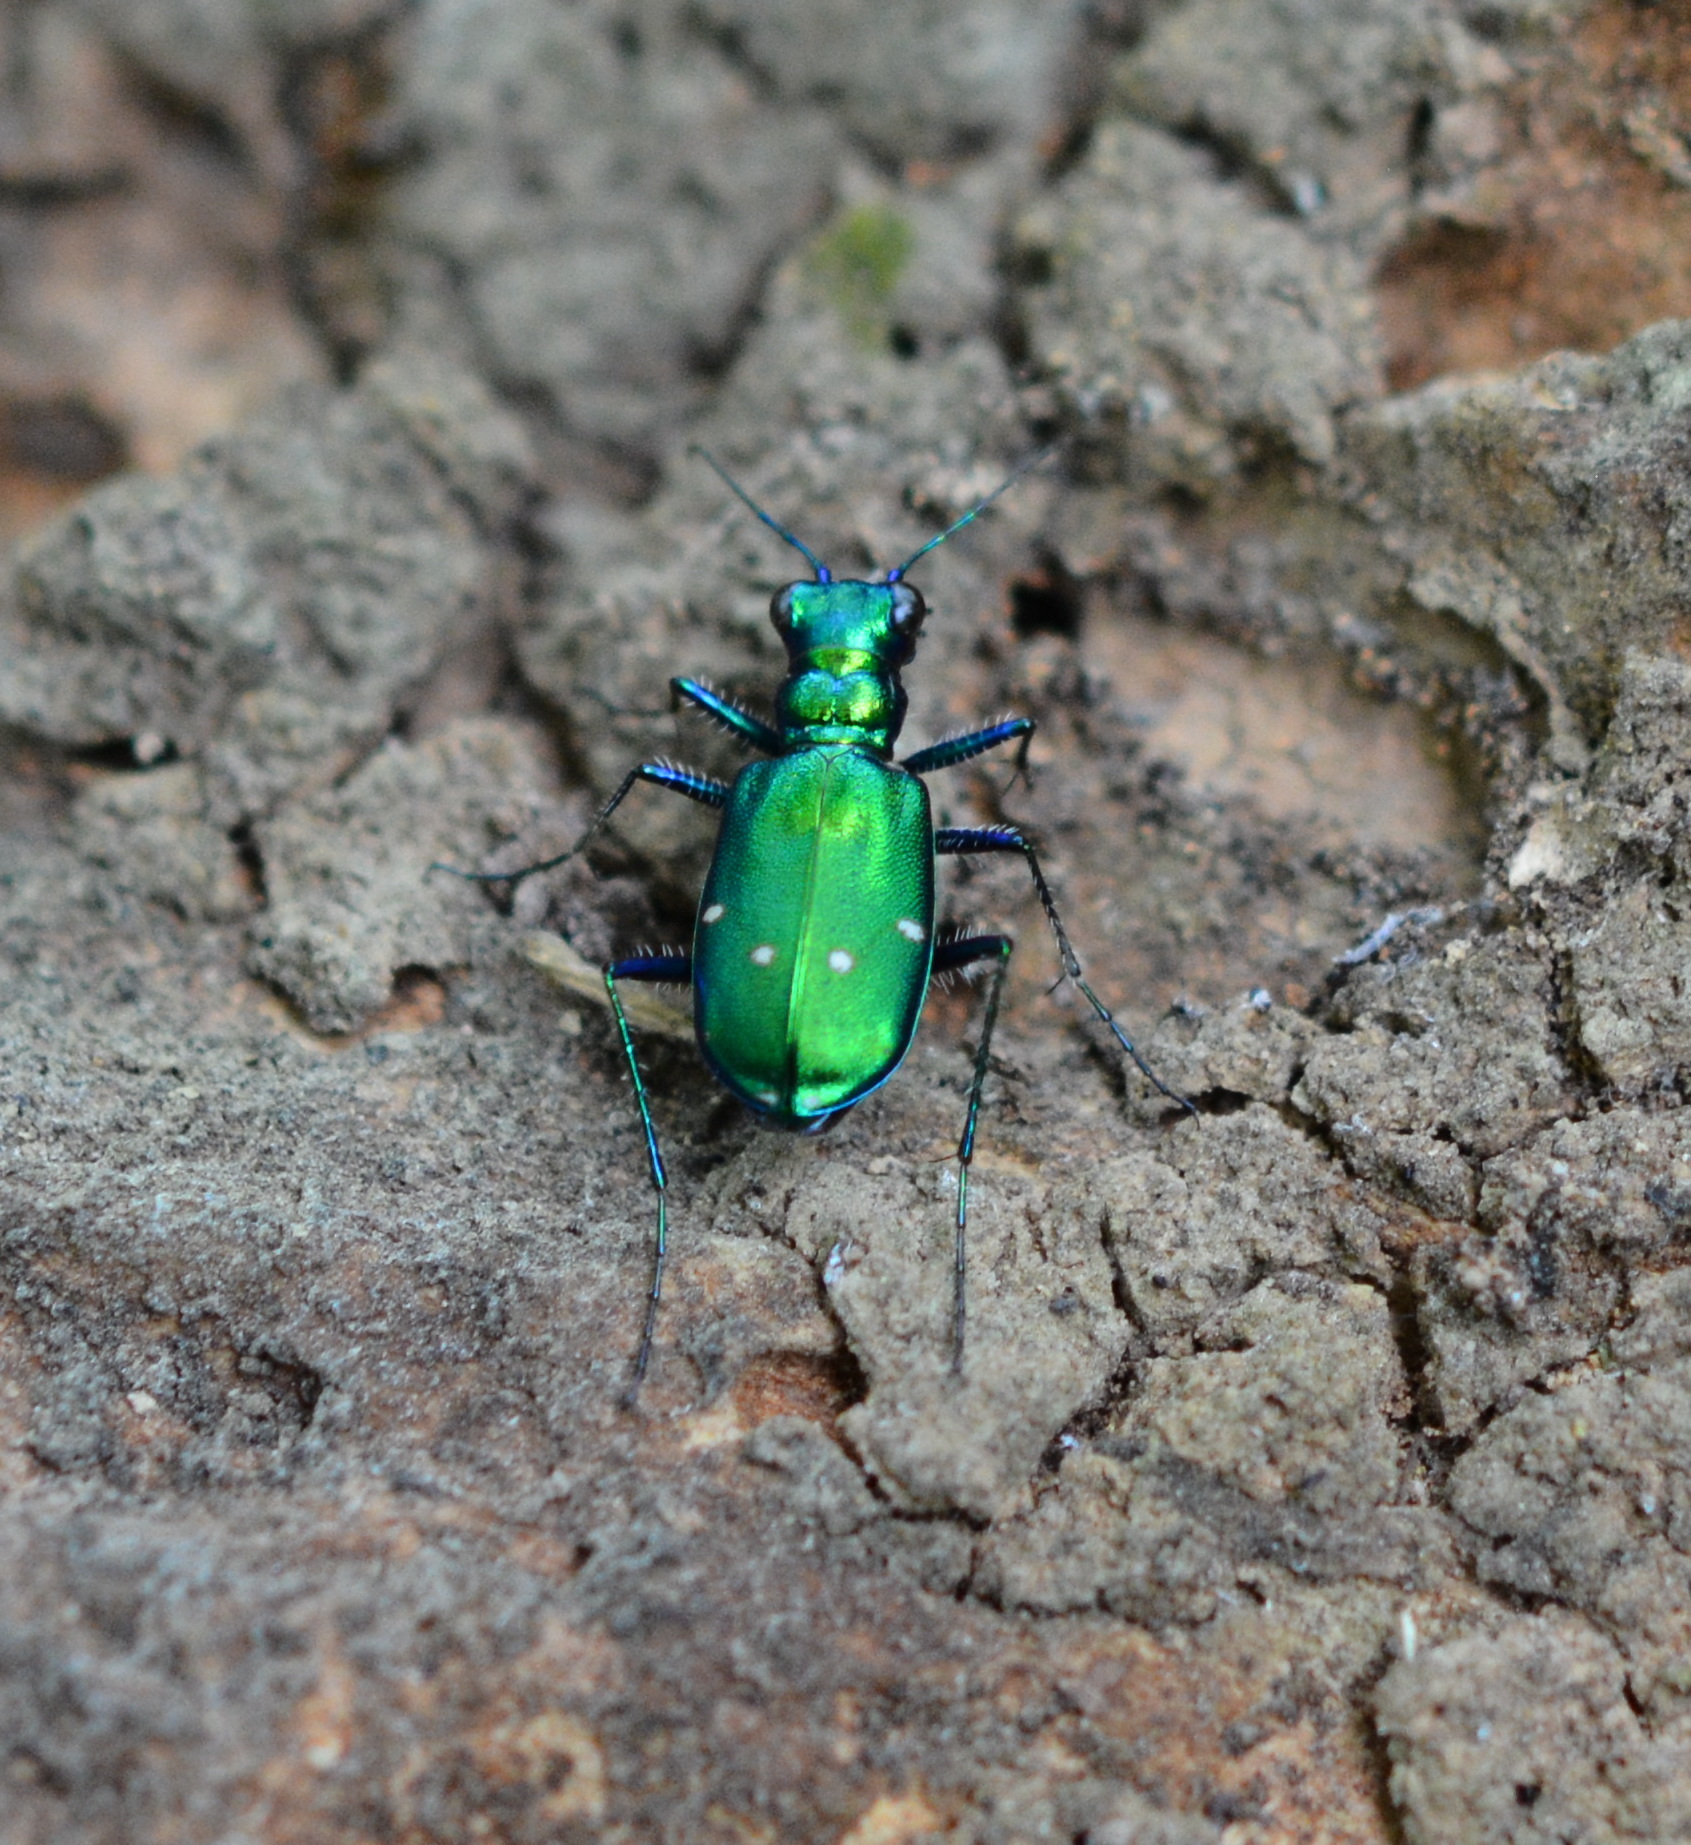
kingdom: Animalia
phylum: Arthropoda
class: Insecta
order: Coleoptera
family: Carabidae
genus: Cicindela
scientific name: Cicindela sexguttata
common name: Six-spotted tiger beetle
